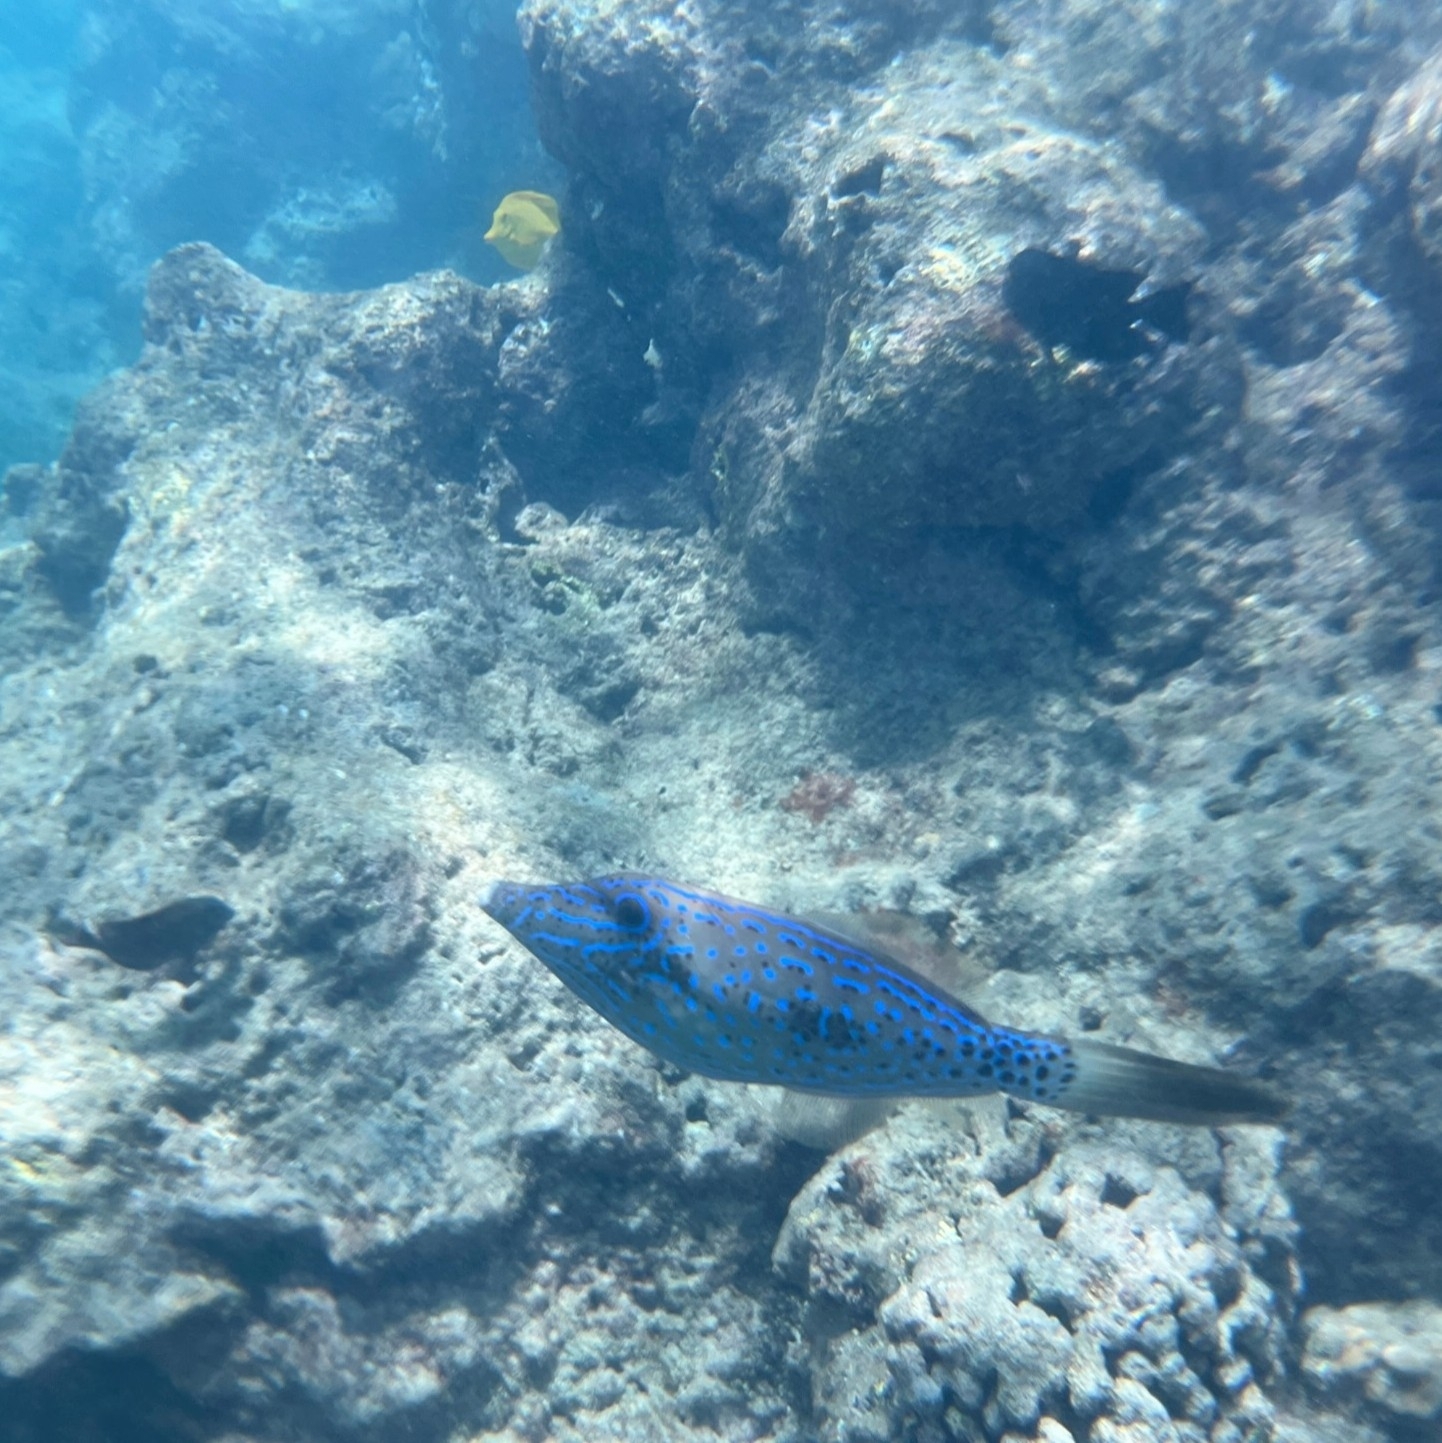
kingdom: Animalia
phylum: Chordata
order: Tetraodontiformes
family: Monacanthidae
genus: Aluterus
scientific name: Aluterus scriptus
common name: Scribbled leatherjacket filefish
